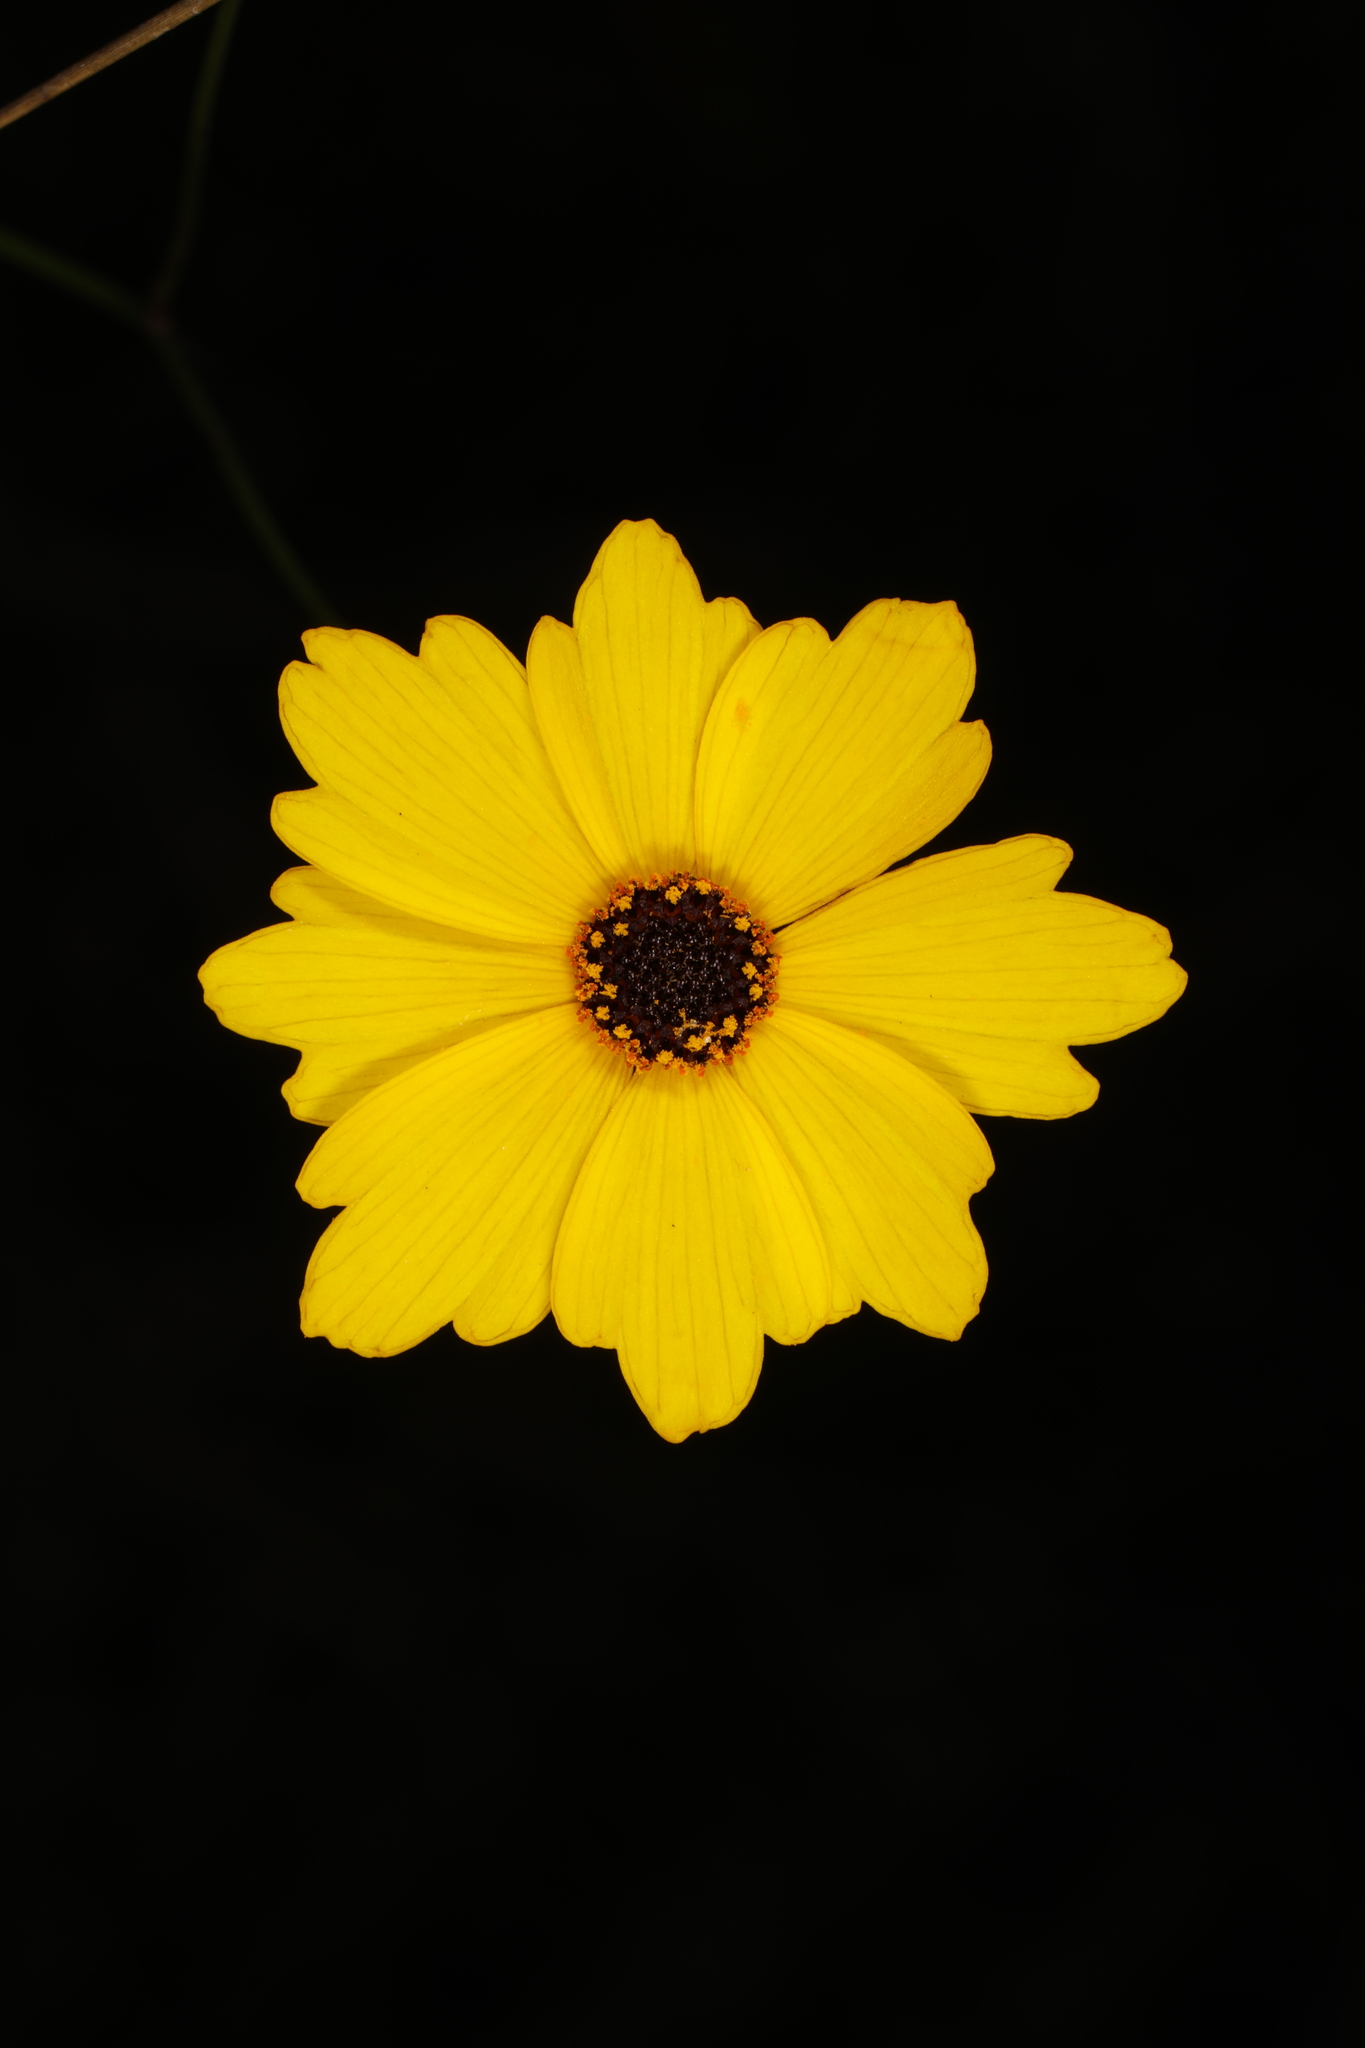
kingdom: Plantae
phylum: Tracheophyta
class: Magnoliopsida
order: Asterales
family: Asteraceae
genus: Coreopsis
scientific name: Coreopsis leavenworthii
